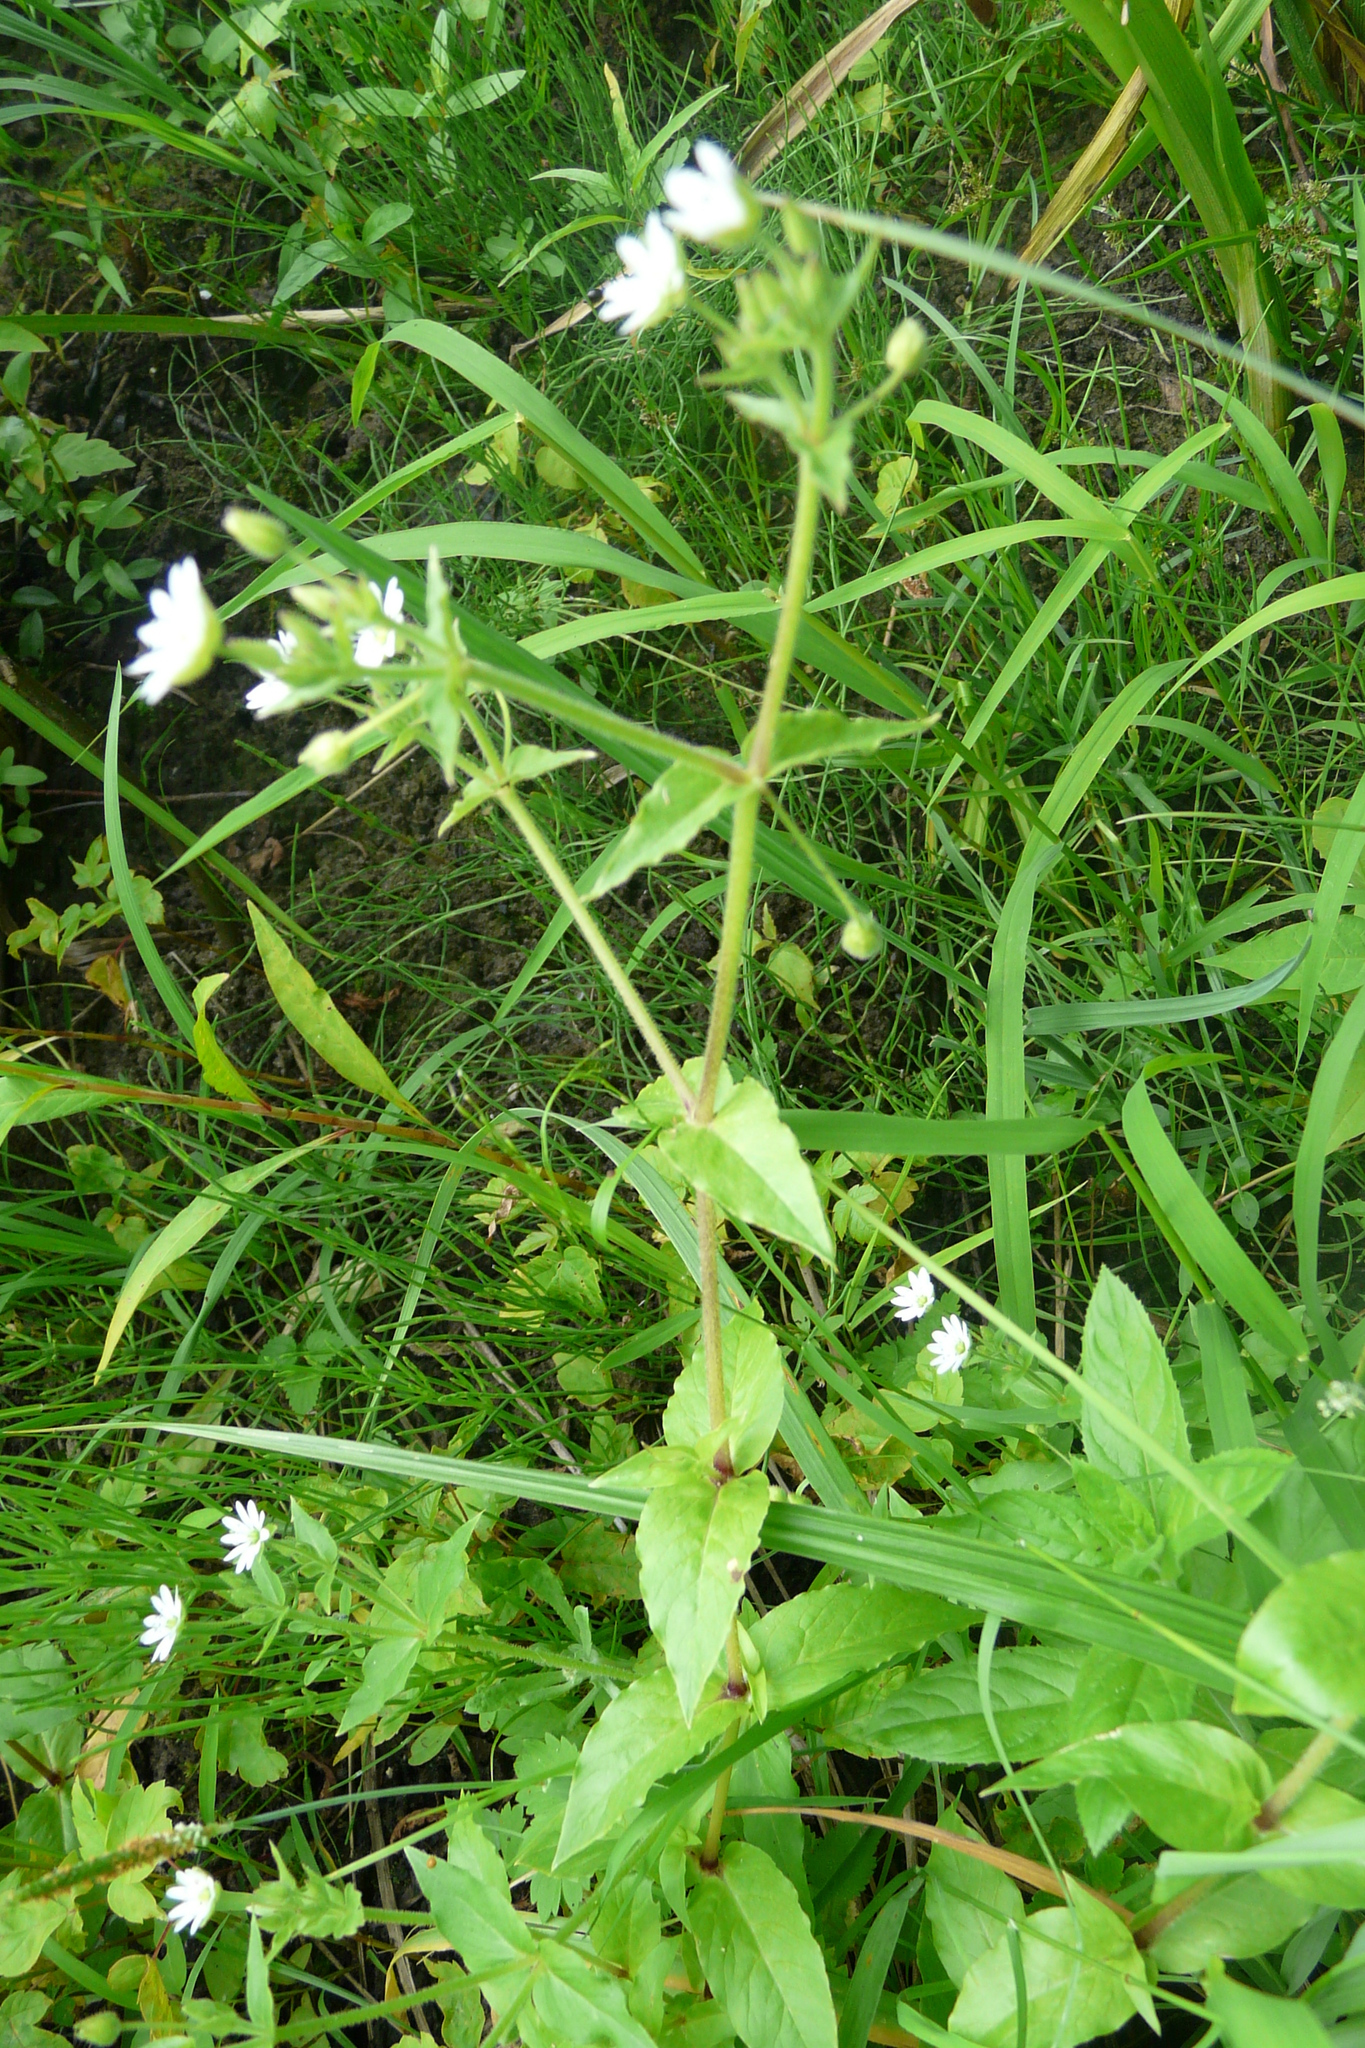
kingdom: Plantae
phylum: Tracheophyta
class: Magnoliopsida
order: Caryophyllales
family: Caryophyllaceae
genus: Stellaria
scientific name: Stellaria aquatica
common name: Water chickweed
